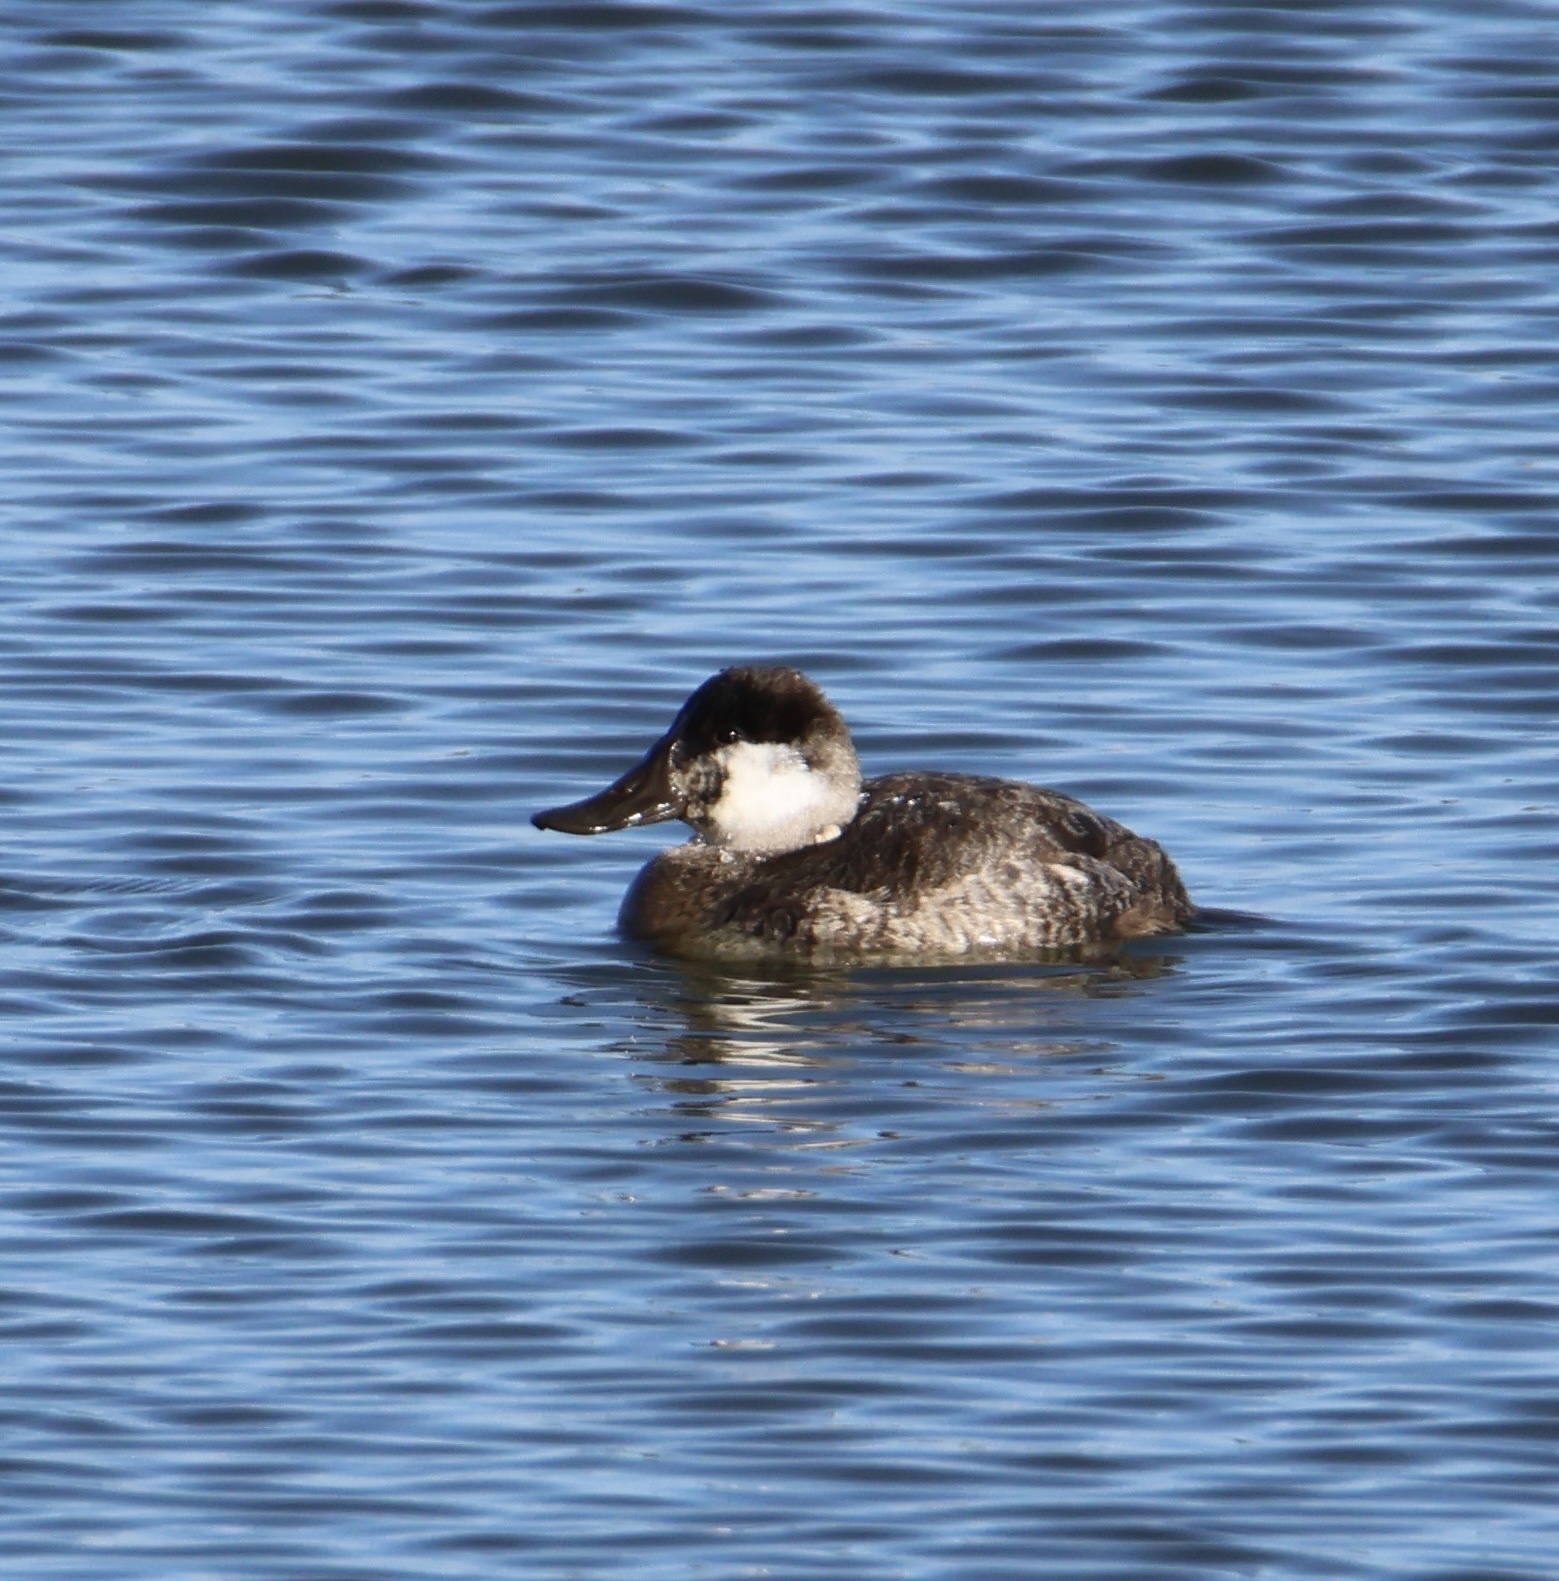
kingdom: Animalia
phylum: Chordata
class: Aves
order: Anseriformes
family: Anatidae
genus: Oxyura
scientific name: Oxyura jamaicensis
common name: Ruddy duck
